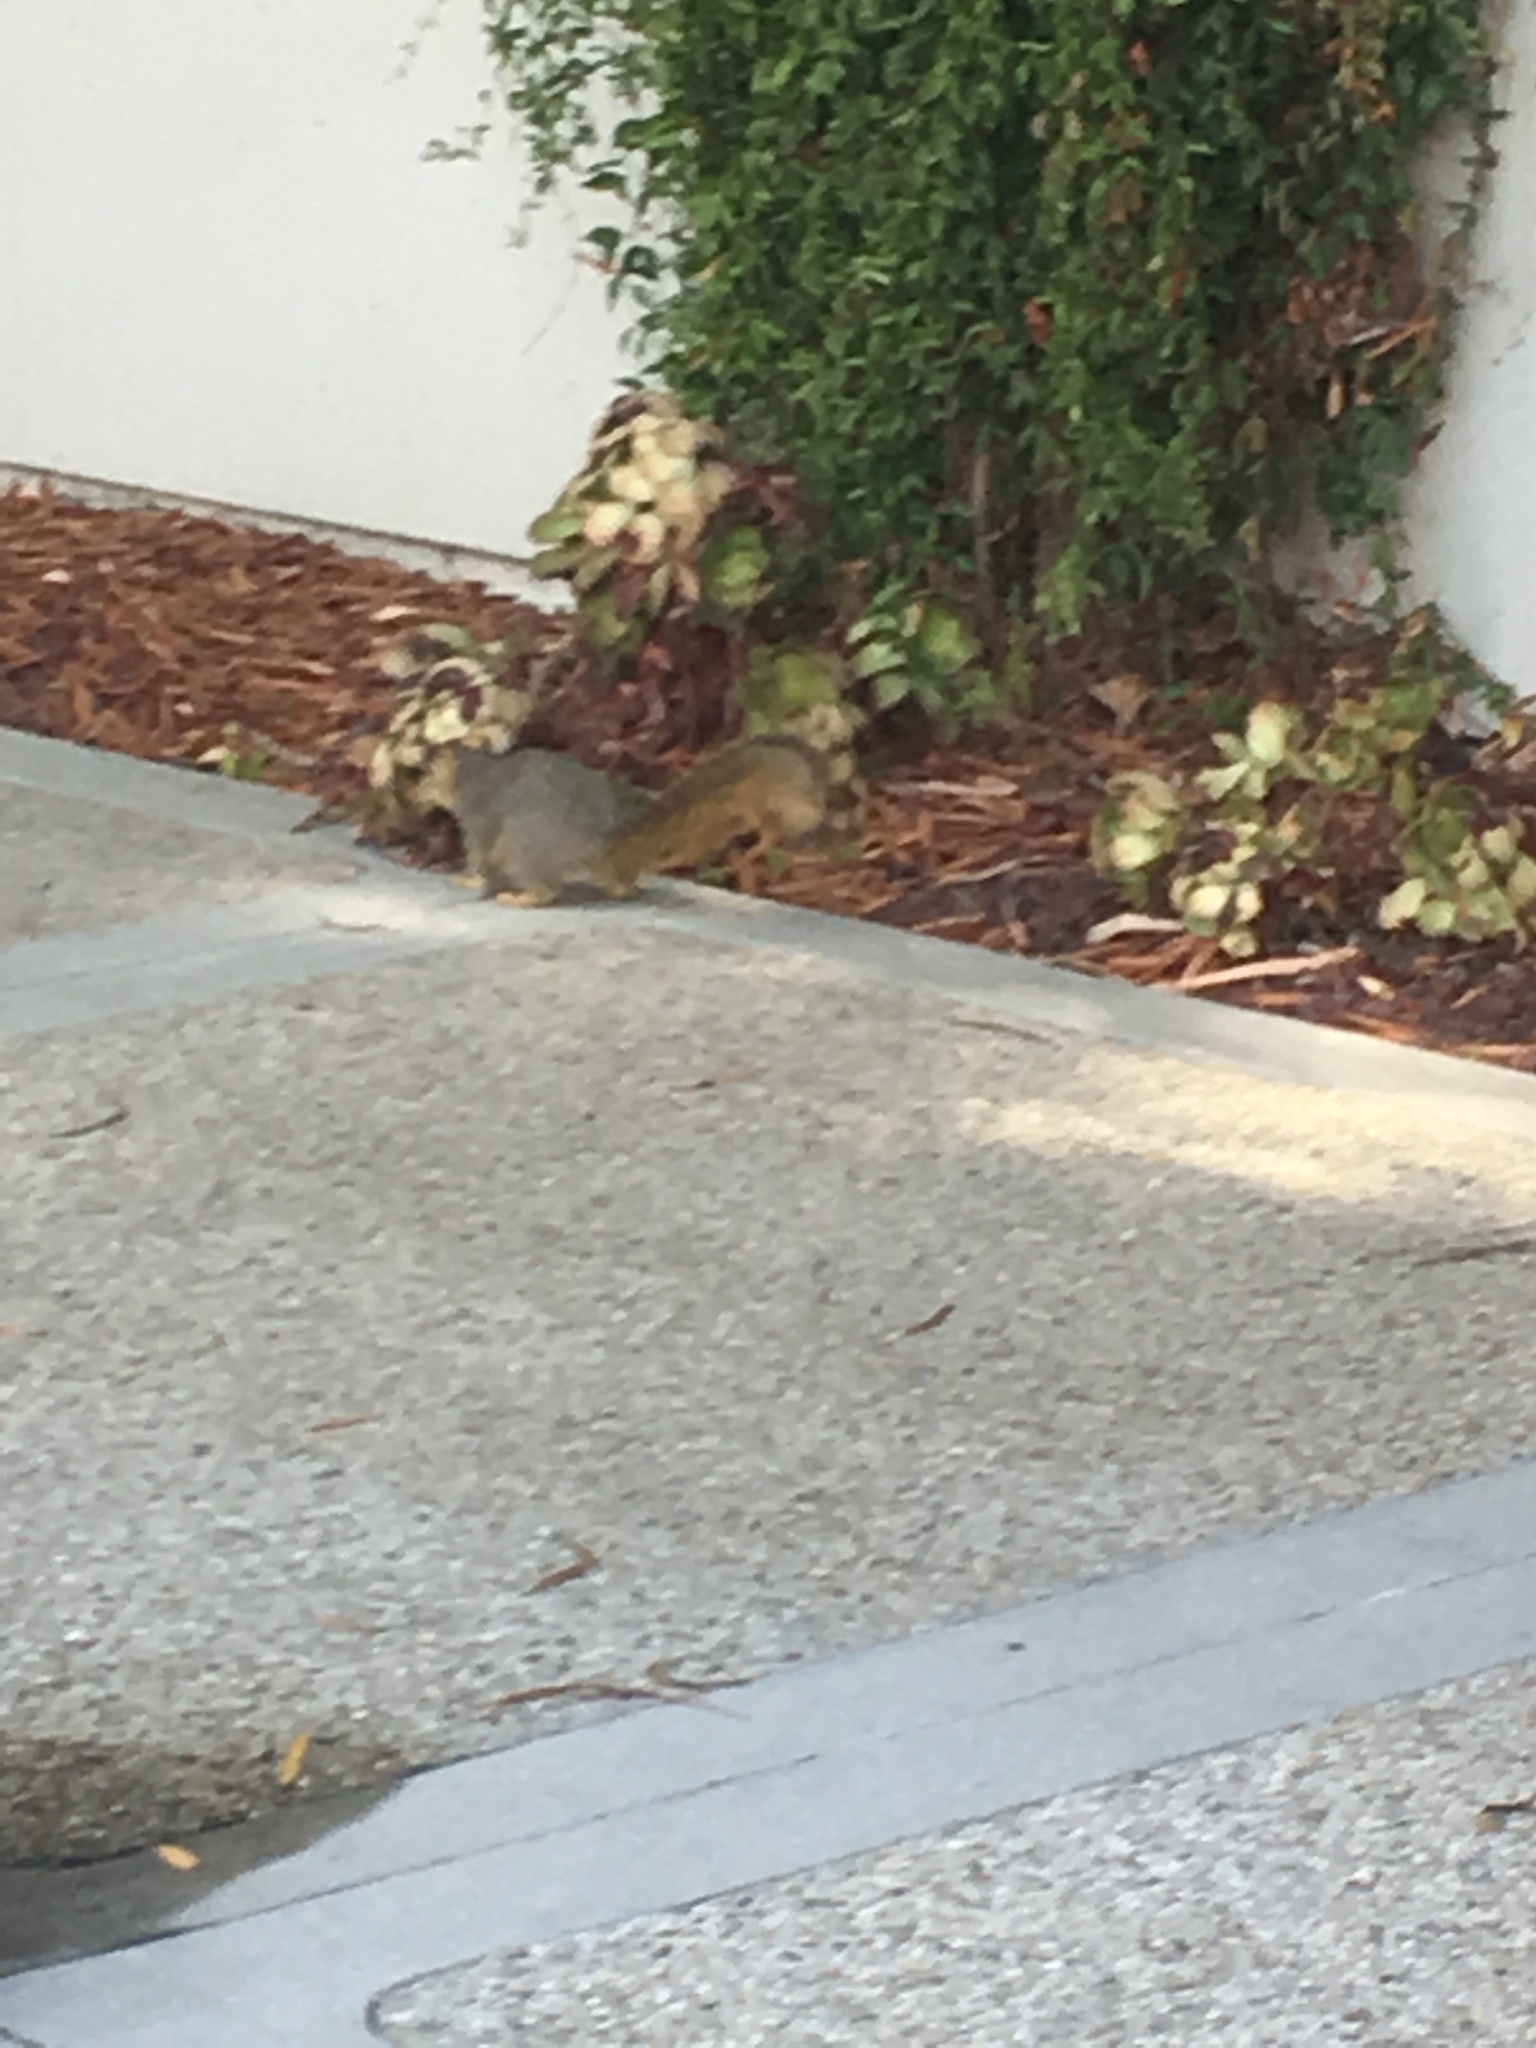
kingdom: Animalia
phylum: Chordata
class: Mammalia
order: Rodentia
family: Sciuridae
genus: Sciurus
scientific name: Sciurus niger
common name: Fox squirrel
